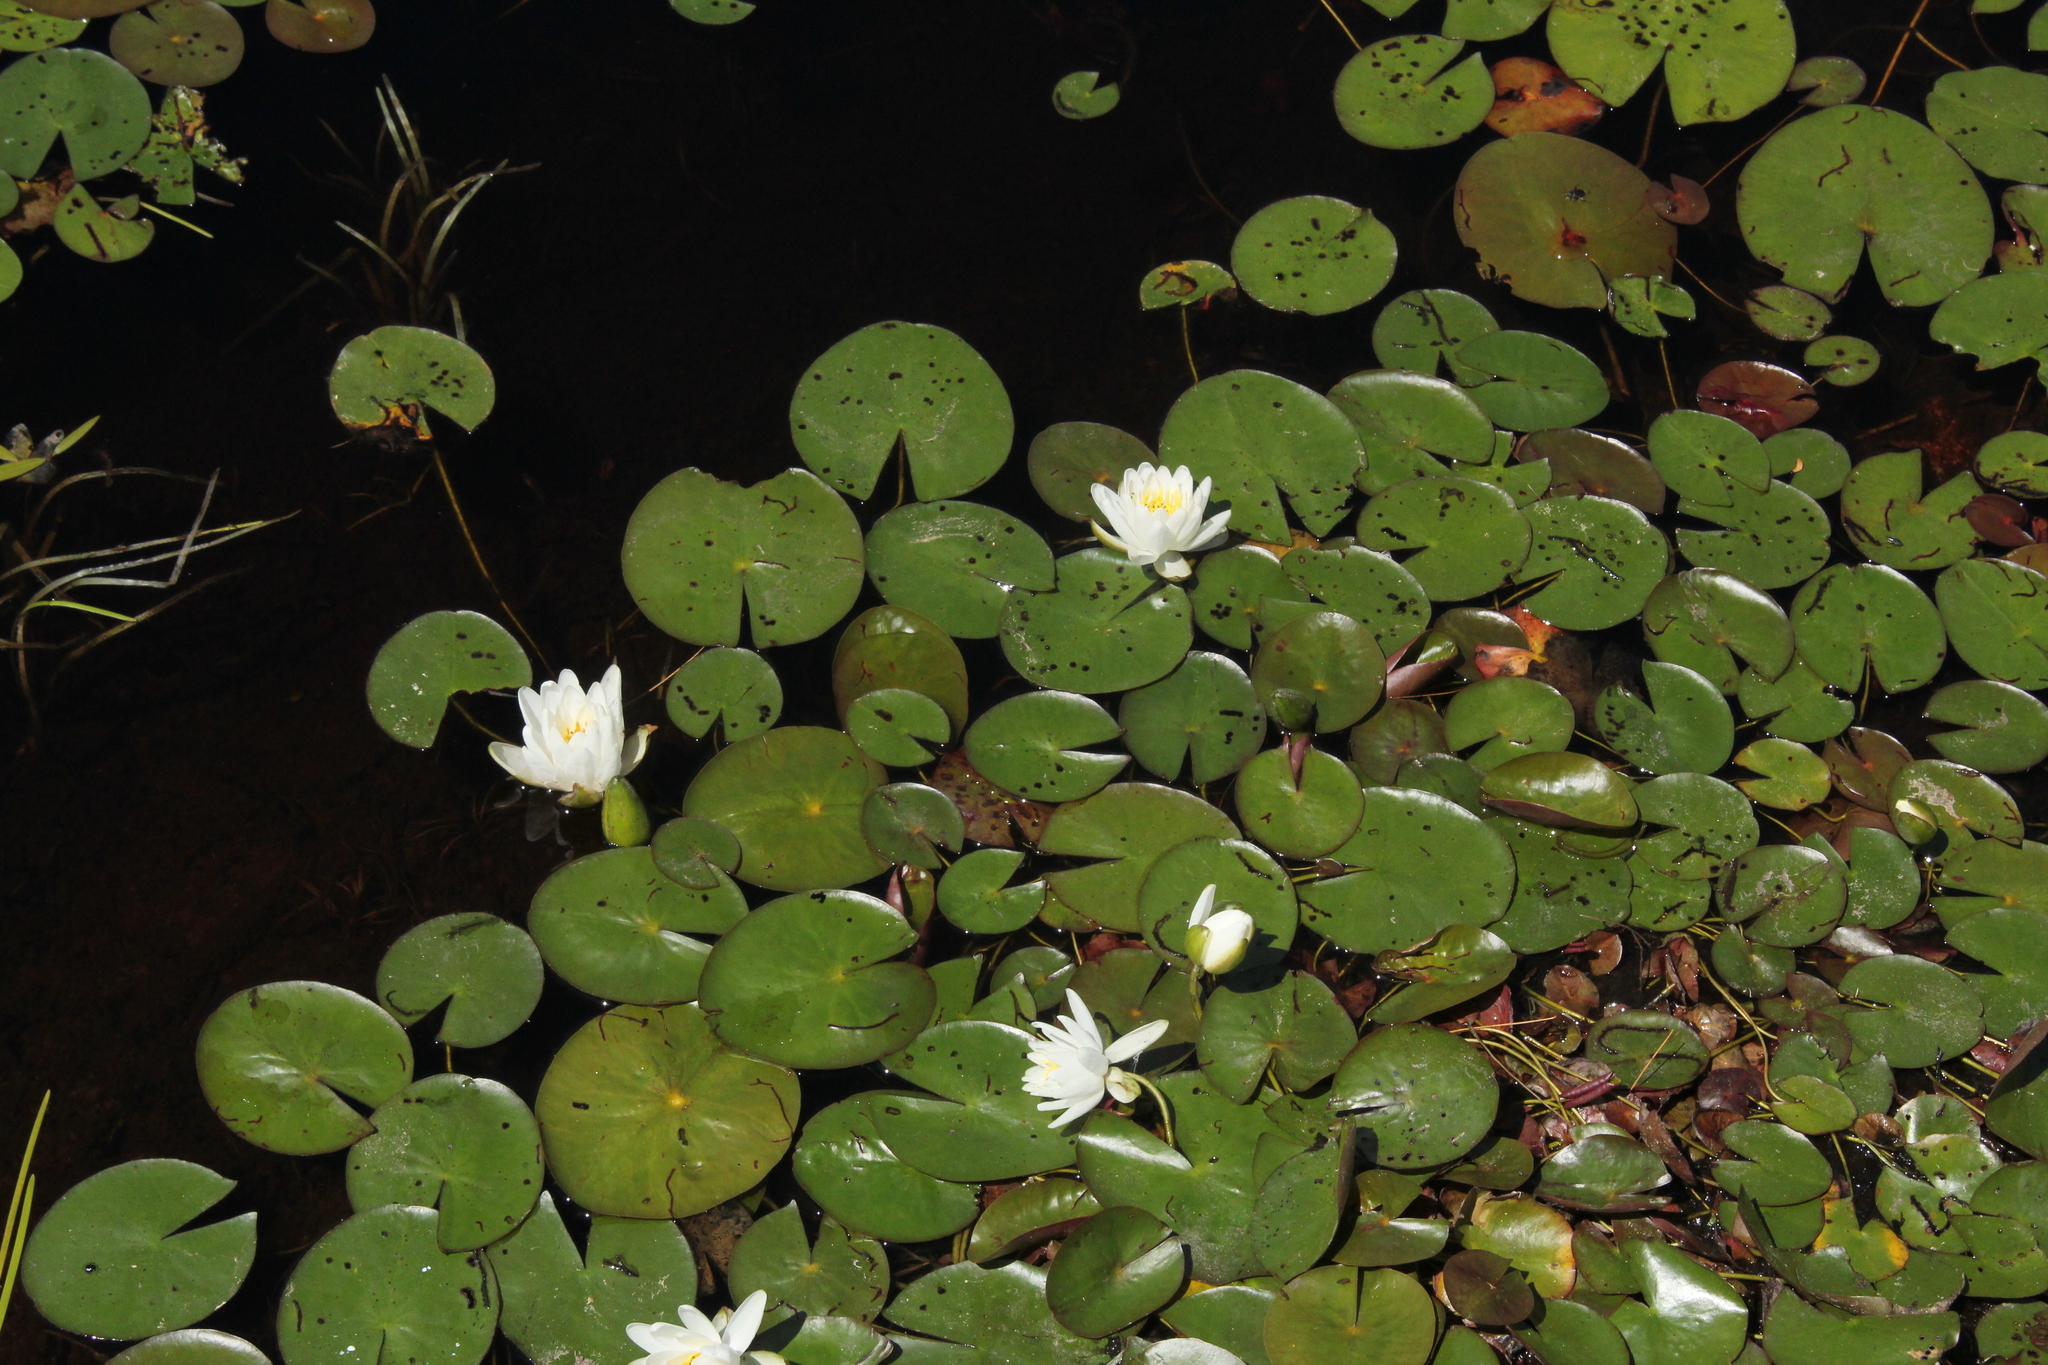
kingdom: Plantae
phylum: Tracheophyta
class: Magnoliopsida
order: Nymphaeales
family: Nymphaeaceae
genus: Nymphaea
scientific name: Nymphaea odorata
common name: Fragrant water-lily
